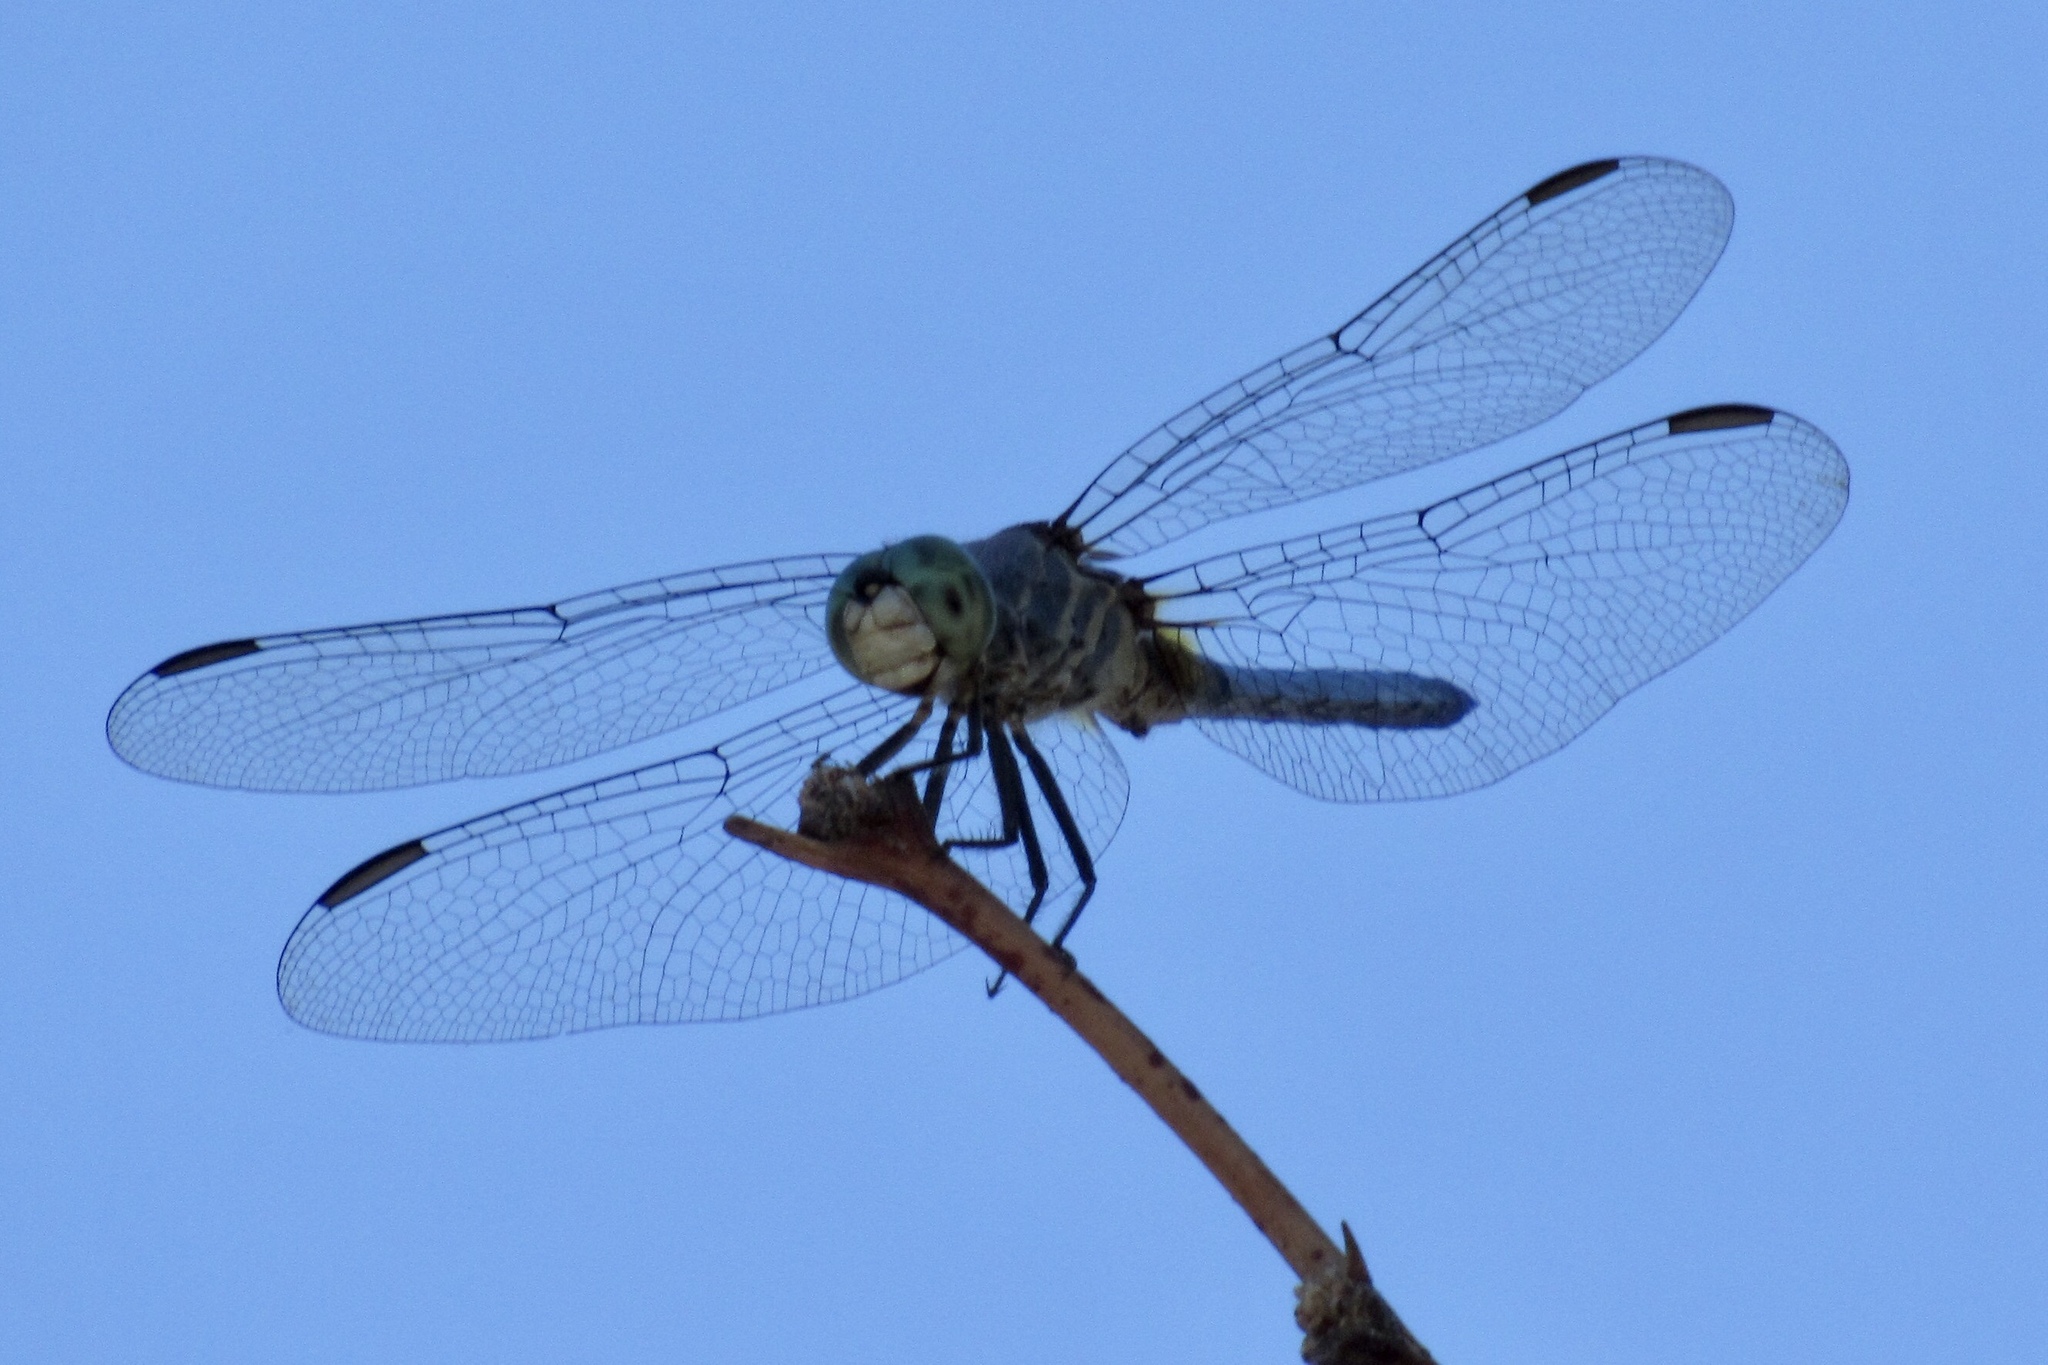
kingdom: Animalia
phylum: Arthropoda
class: Insecta
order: Odonata
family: Libellulidae
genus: Pachydiplax
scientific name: Pachydiplax longipennis
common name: Blue dasher
